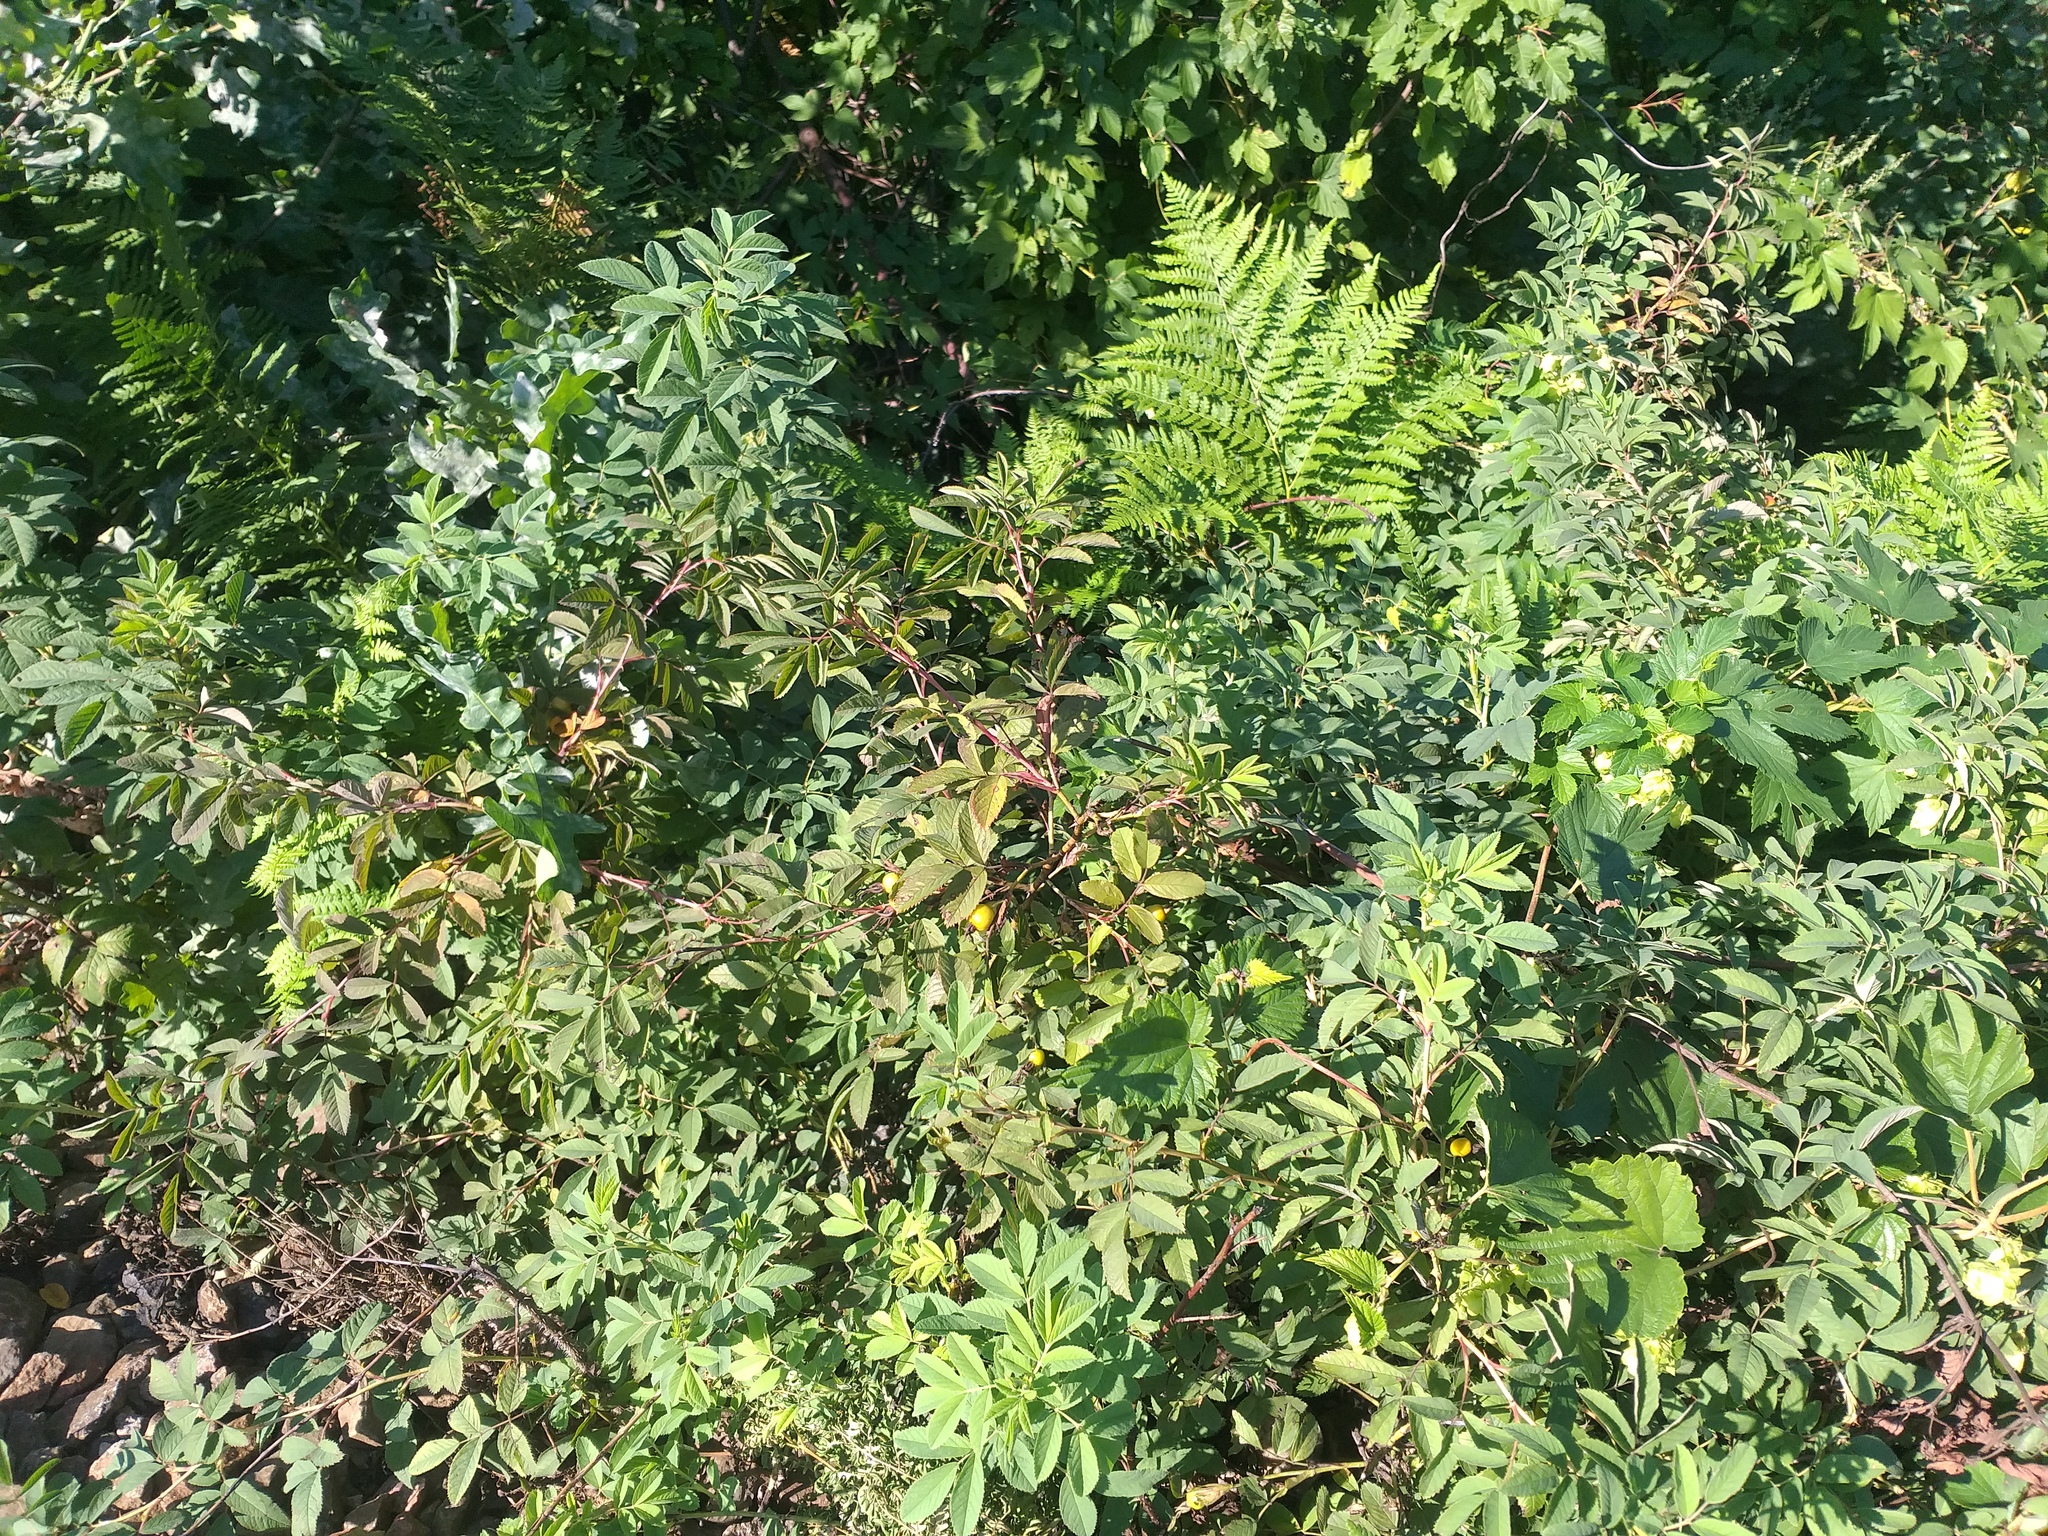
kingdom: Plantae
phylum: Tracheophyta
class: Magnoliopsida
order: Rosales
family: Rosaceae
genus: Rosa
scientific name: Rosa majalis
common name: Cinnamon rose
